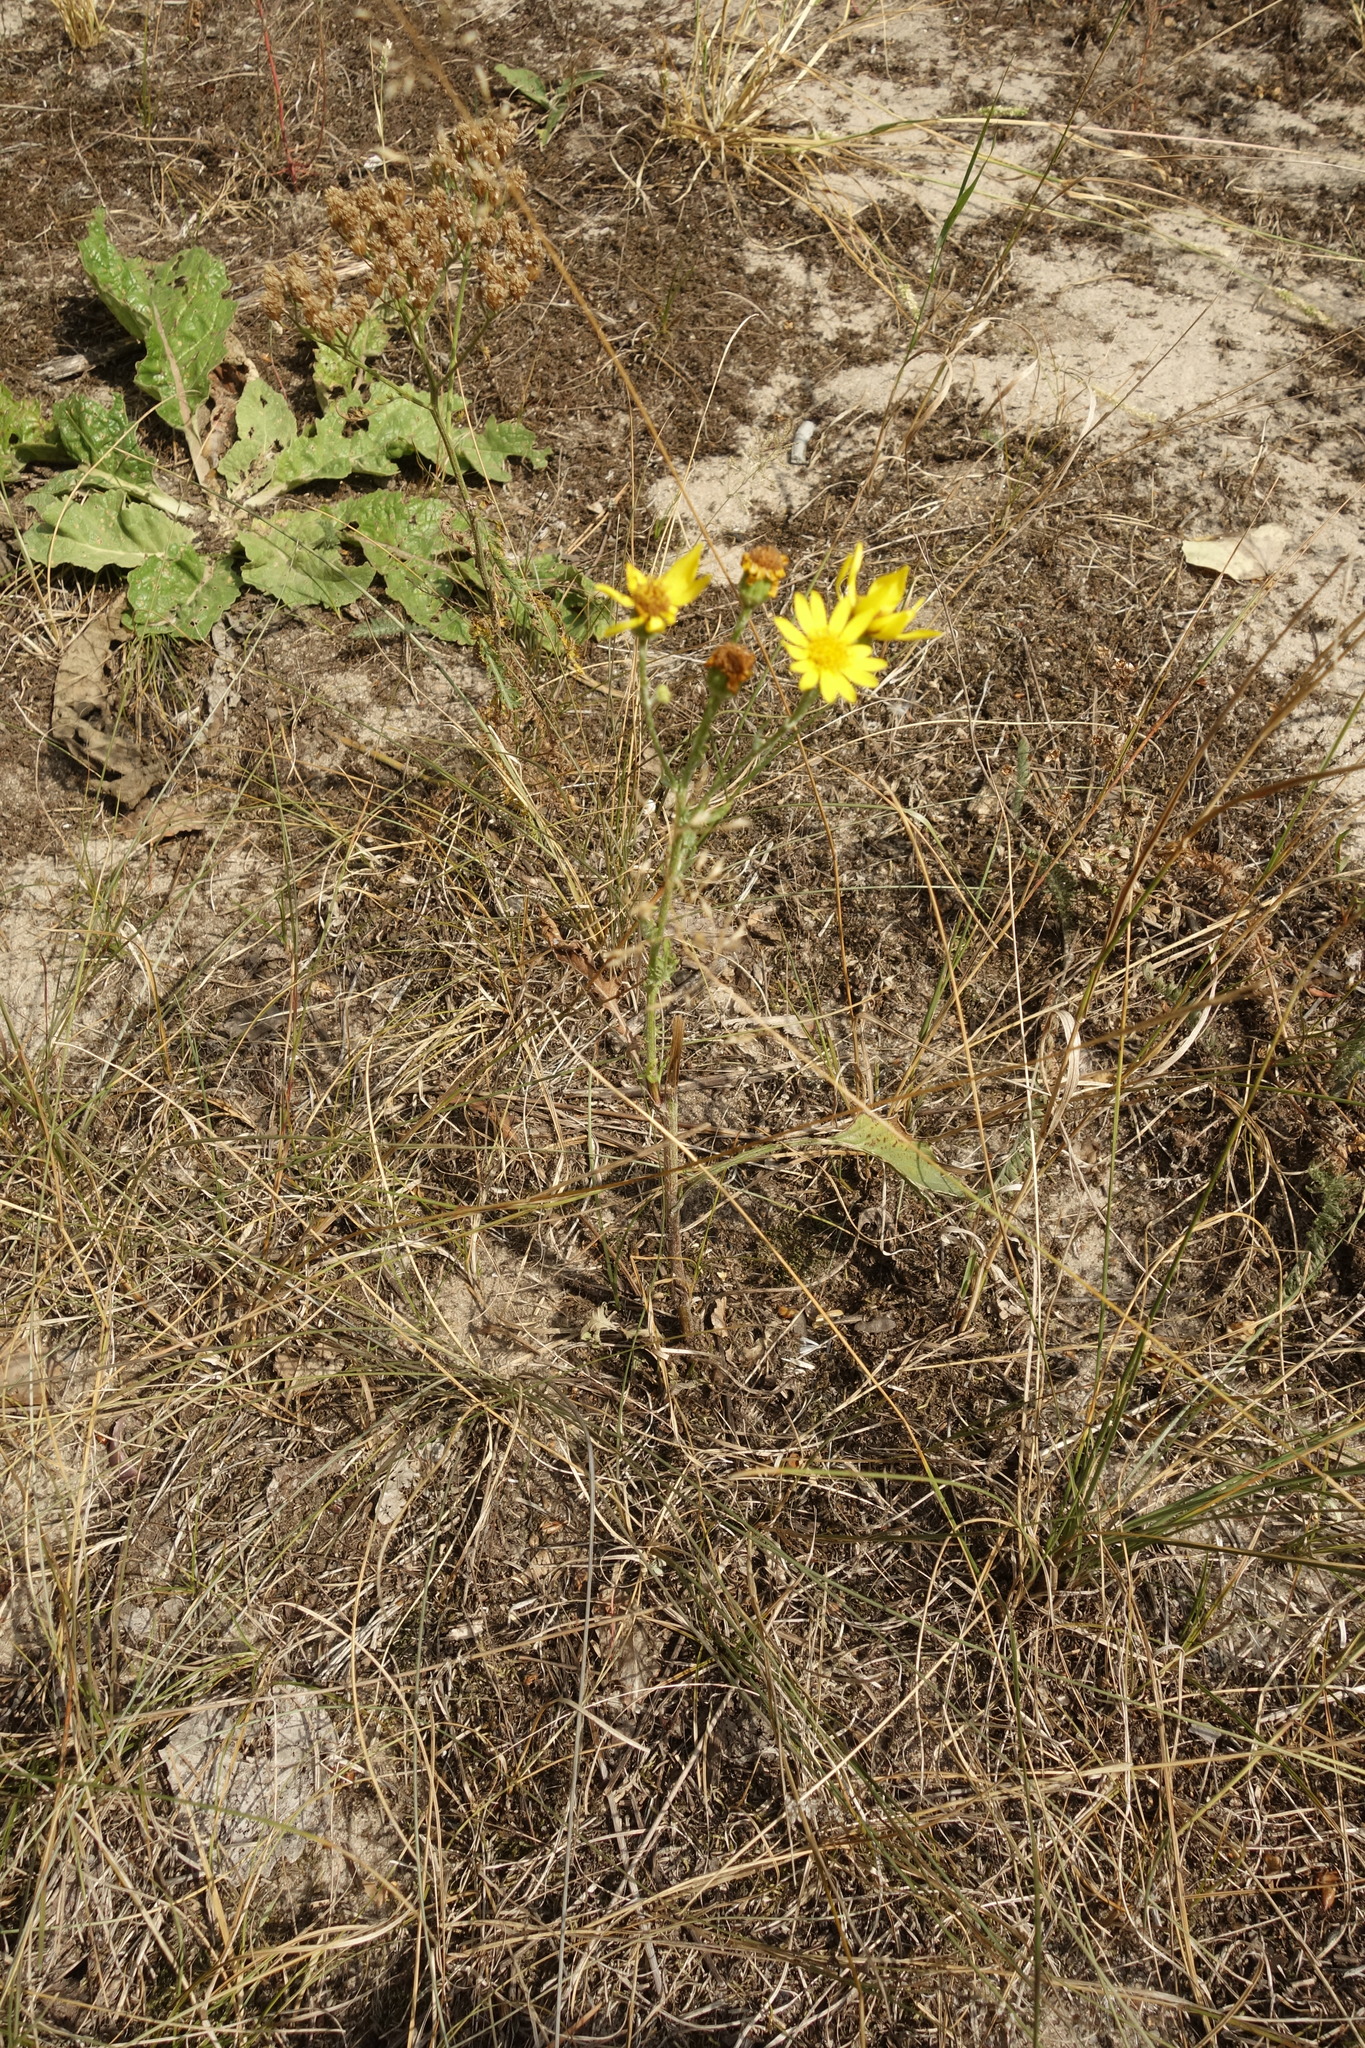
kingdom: Plantae
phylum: Tracheophyta
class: Magnoliopsida
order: Asterales
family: Asteraceae
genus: Jacobaea
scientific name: Jacobaea vulgaris
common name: Stinking willie
